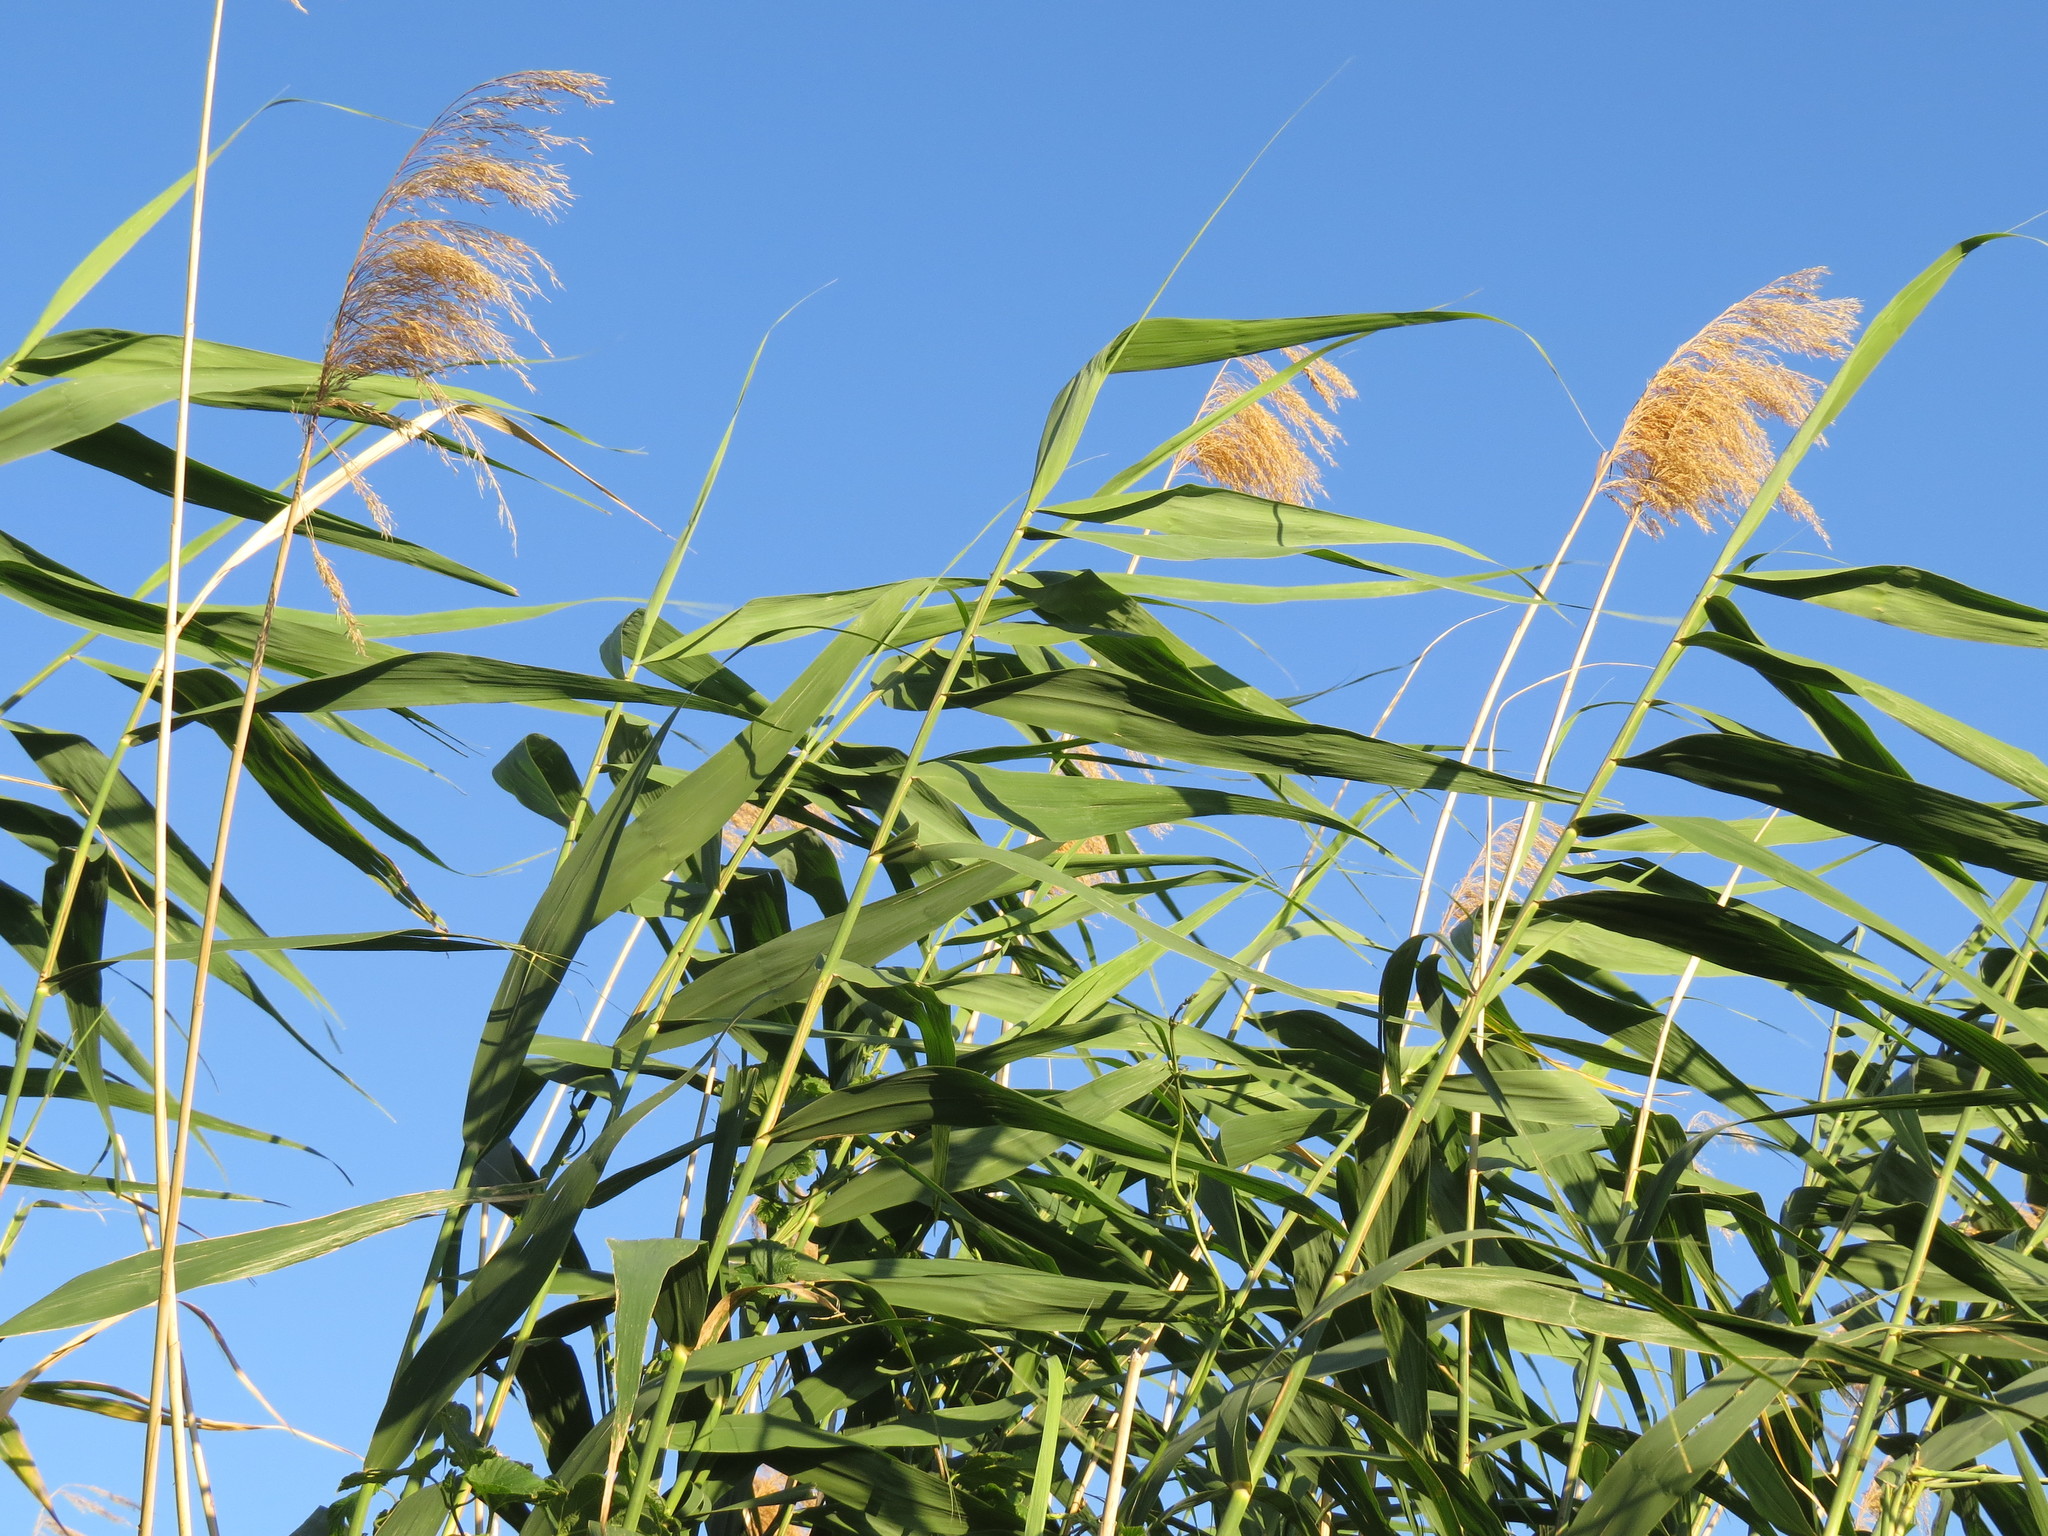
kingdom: Plantae
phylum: Tracheophyta
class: Liliopsida
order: Poales
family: Poaceae
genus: Phragmites
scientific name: Phragmites australis
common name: Common reed
